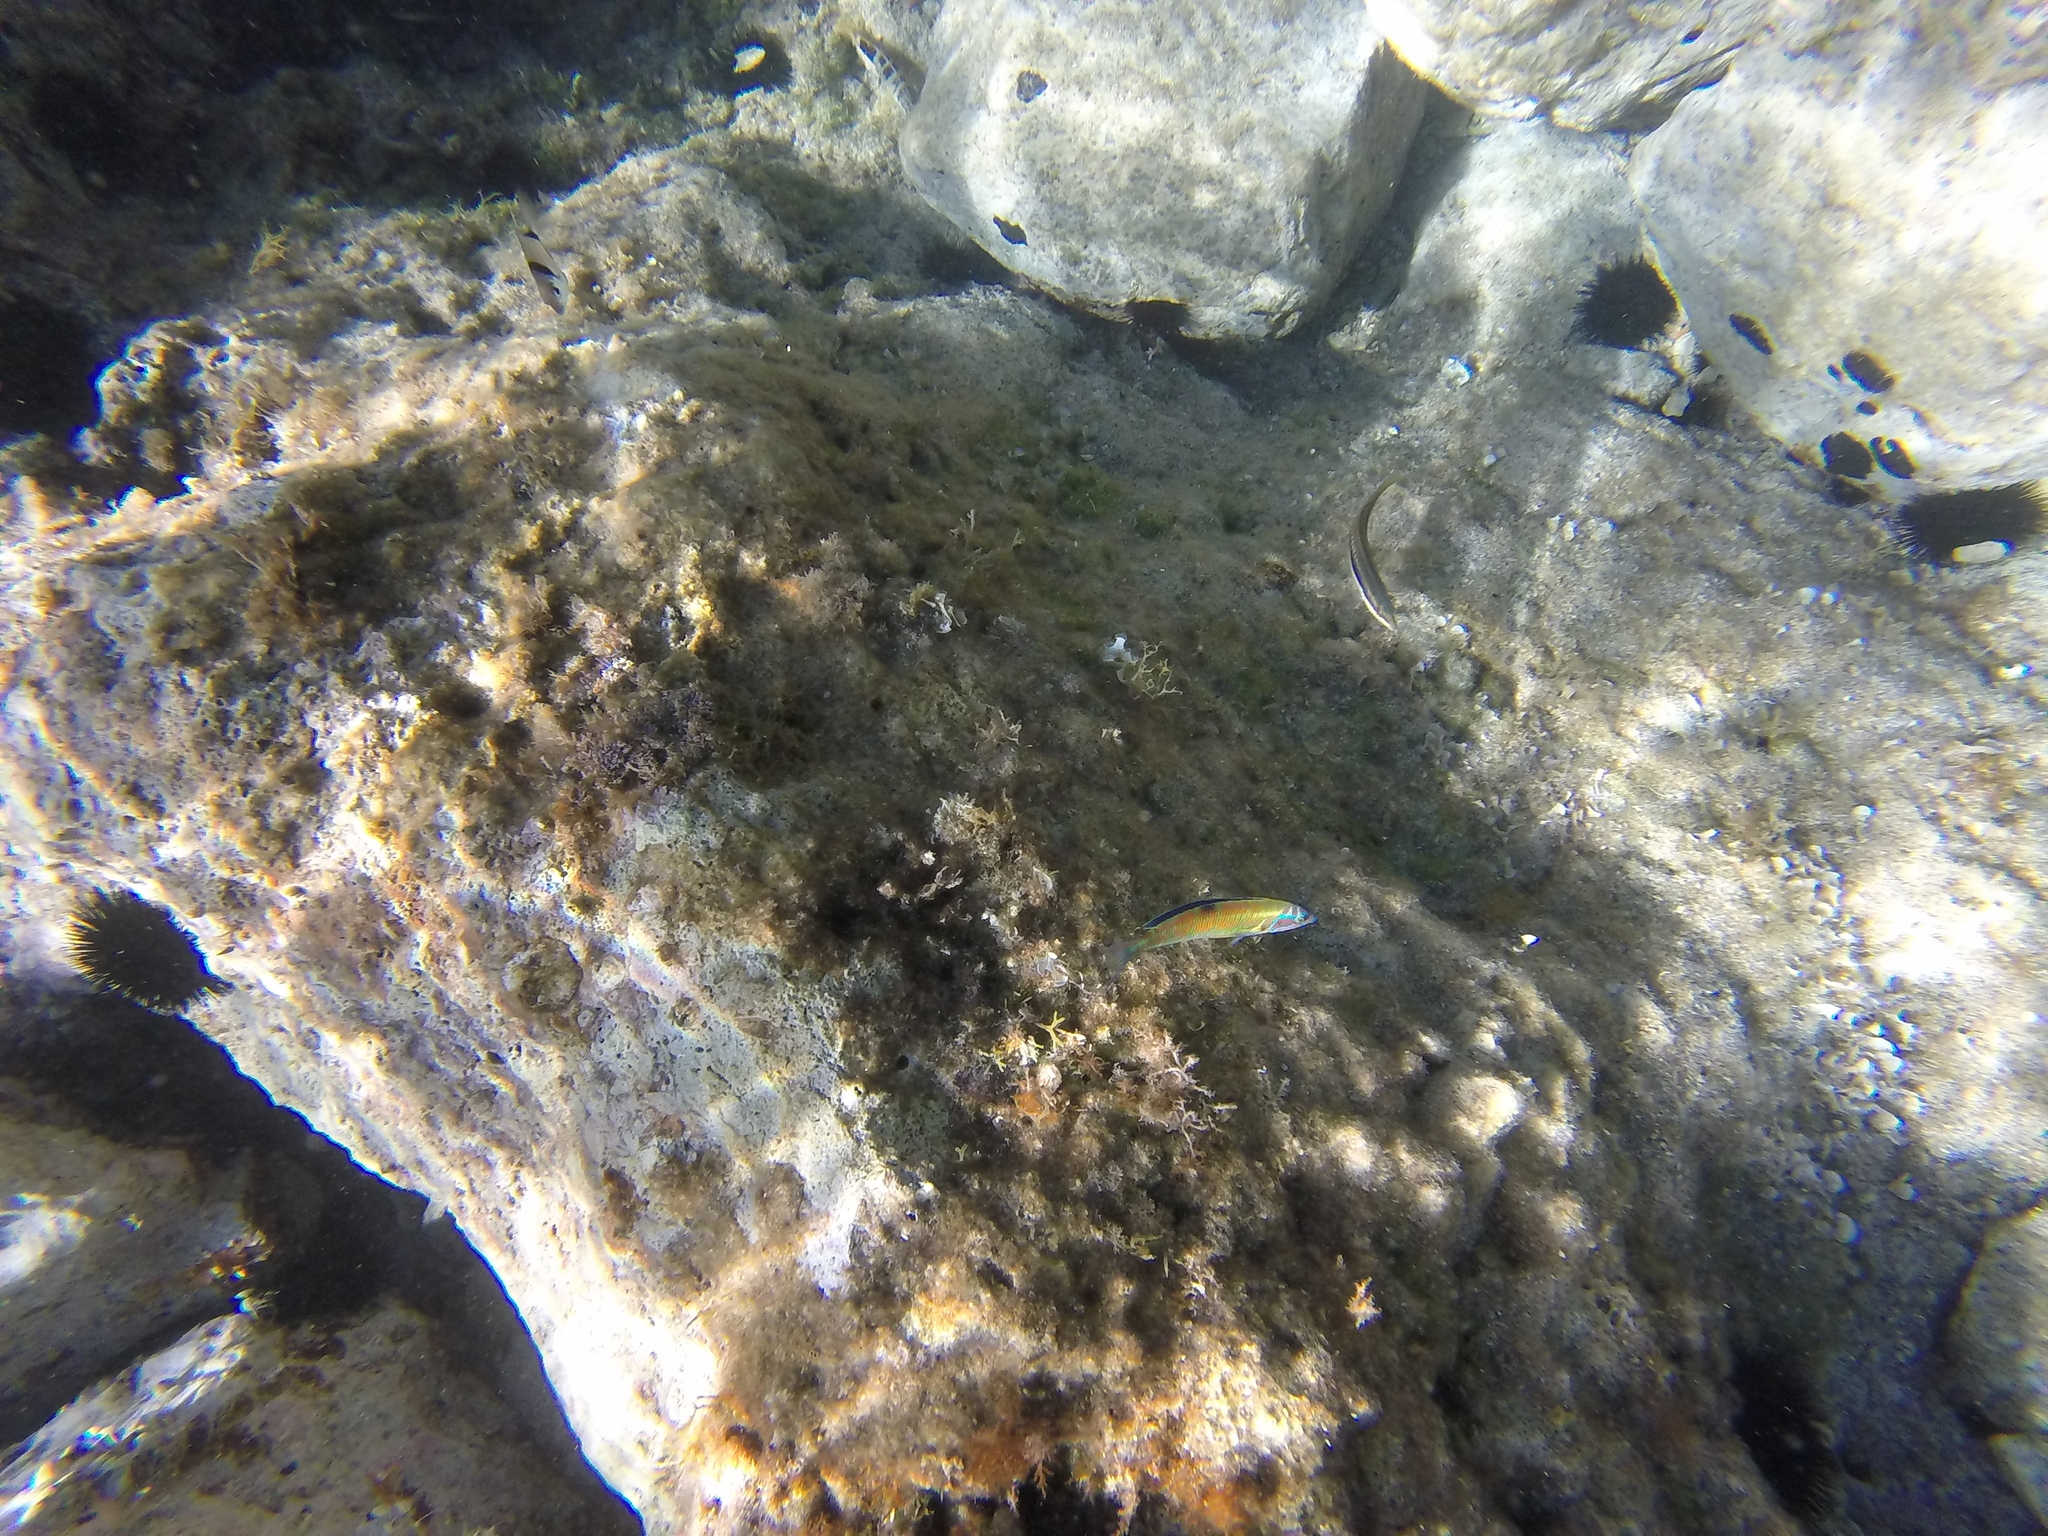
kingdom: Animalia
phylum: Chordata
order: Perciformes
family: Labridae
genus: Thalassoma
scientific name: Thalassoma pavo
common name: Ornate wrasse
